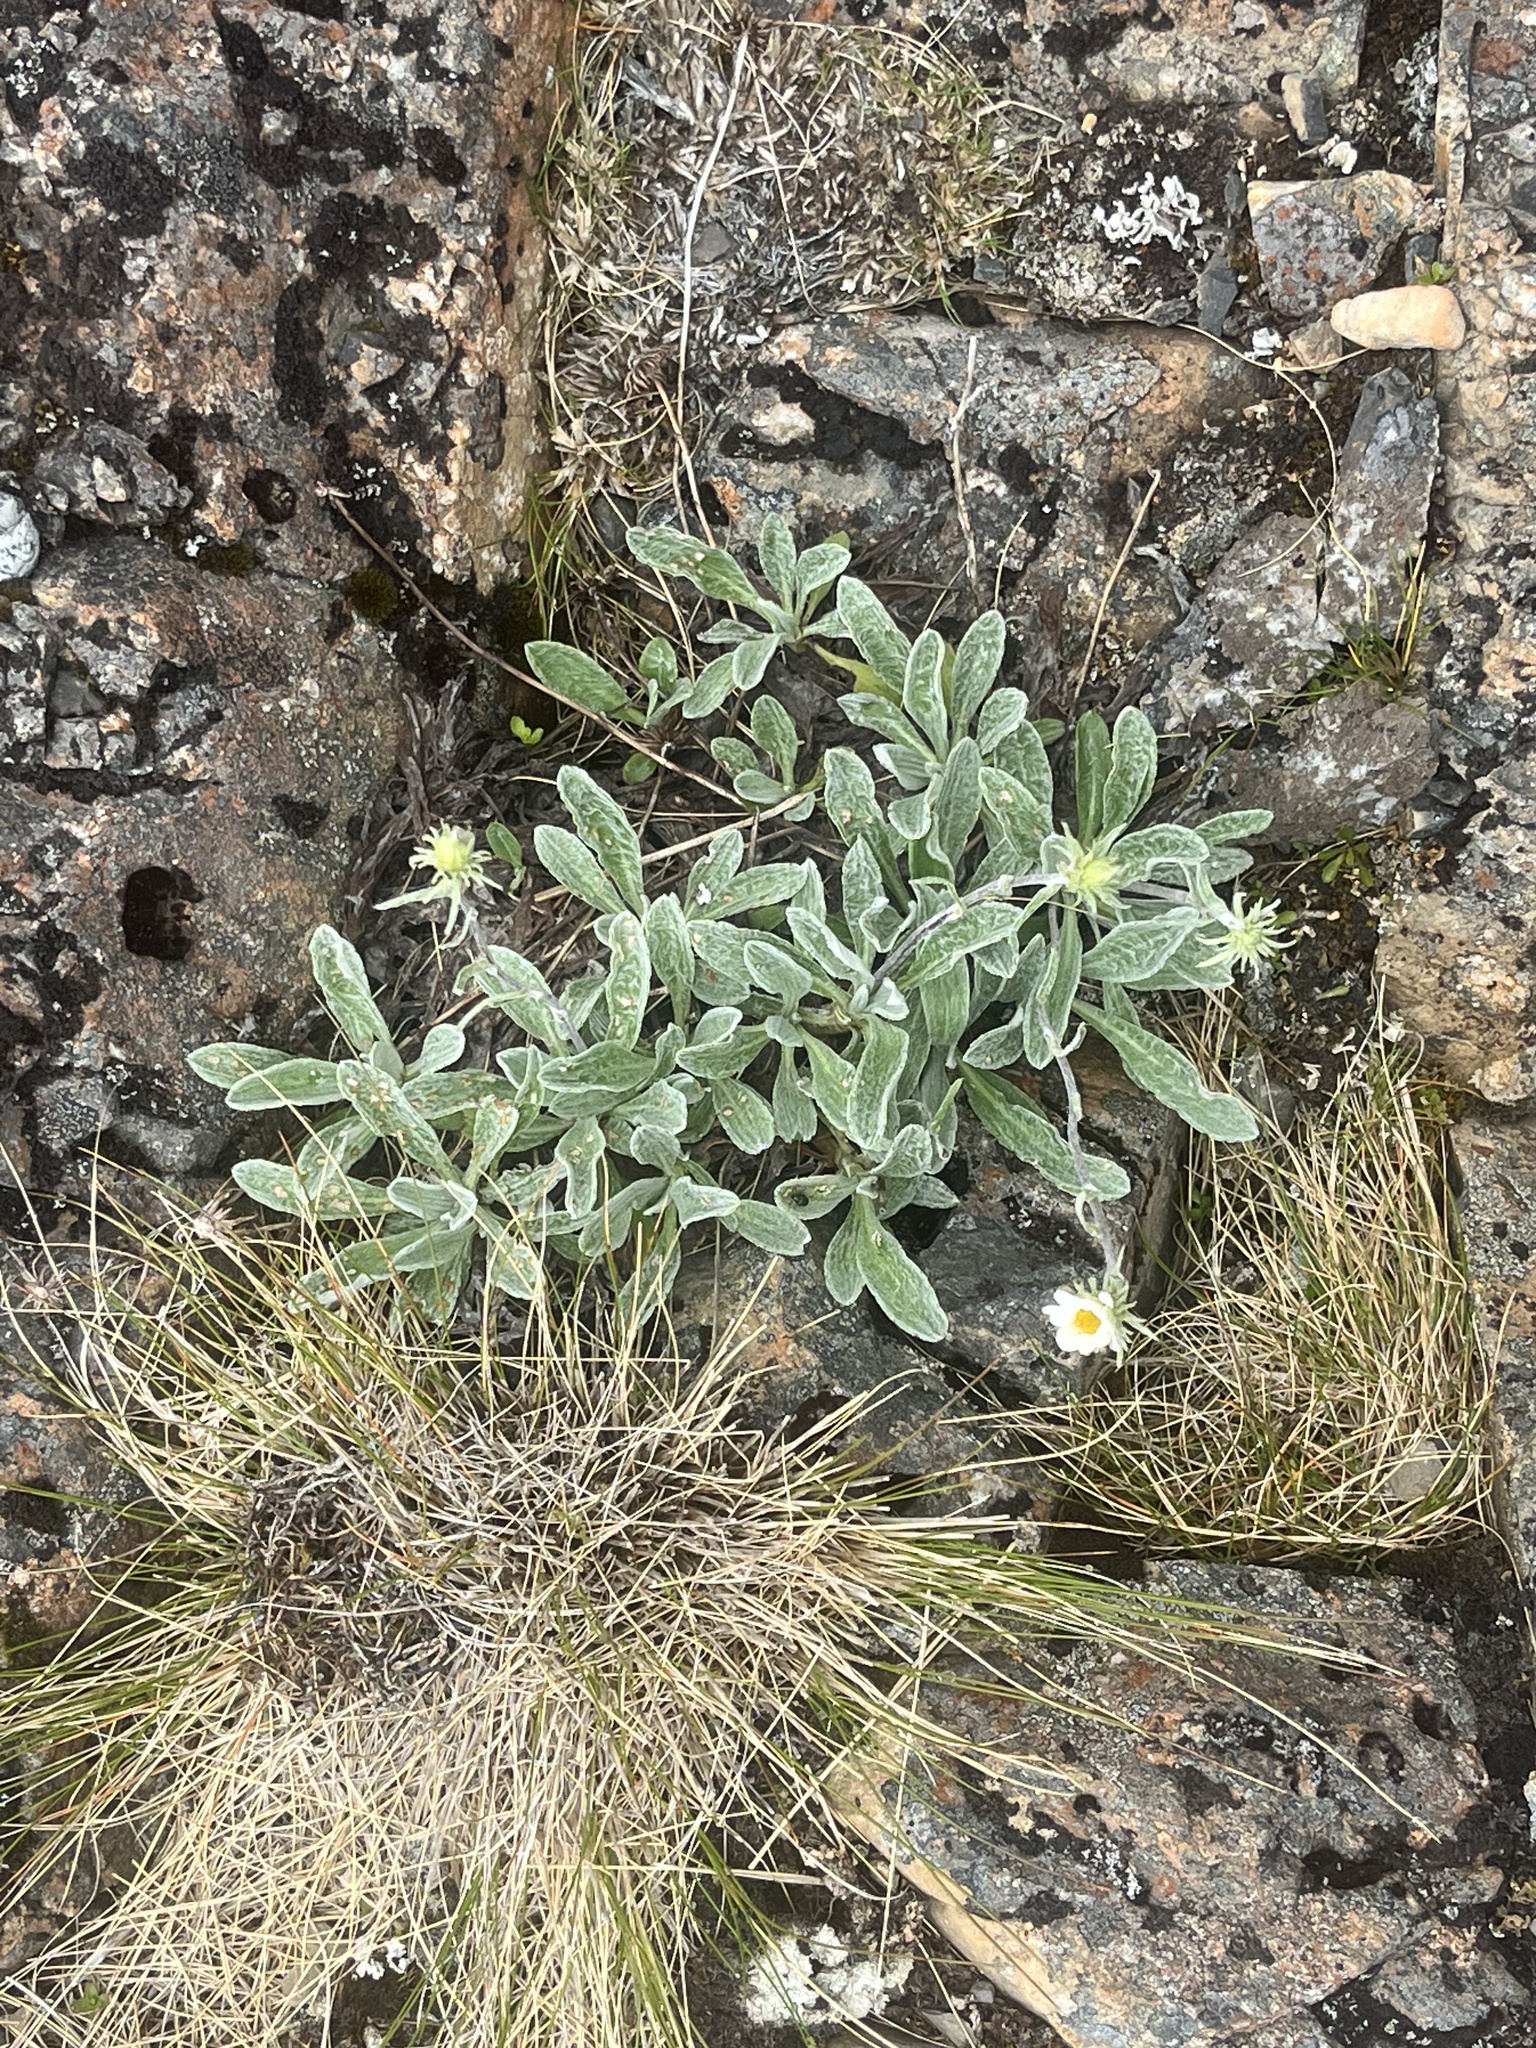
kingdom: Plantae
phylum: Tracheophyta
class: Magnoliopsida
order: Asterales
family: Asteraceae
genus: Celmisia
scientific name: Celmisia allanii
